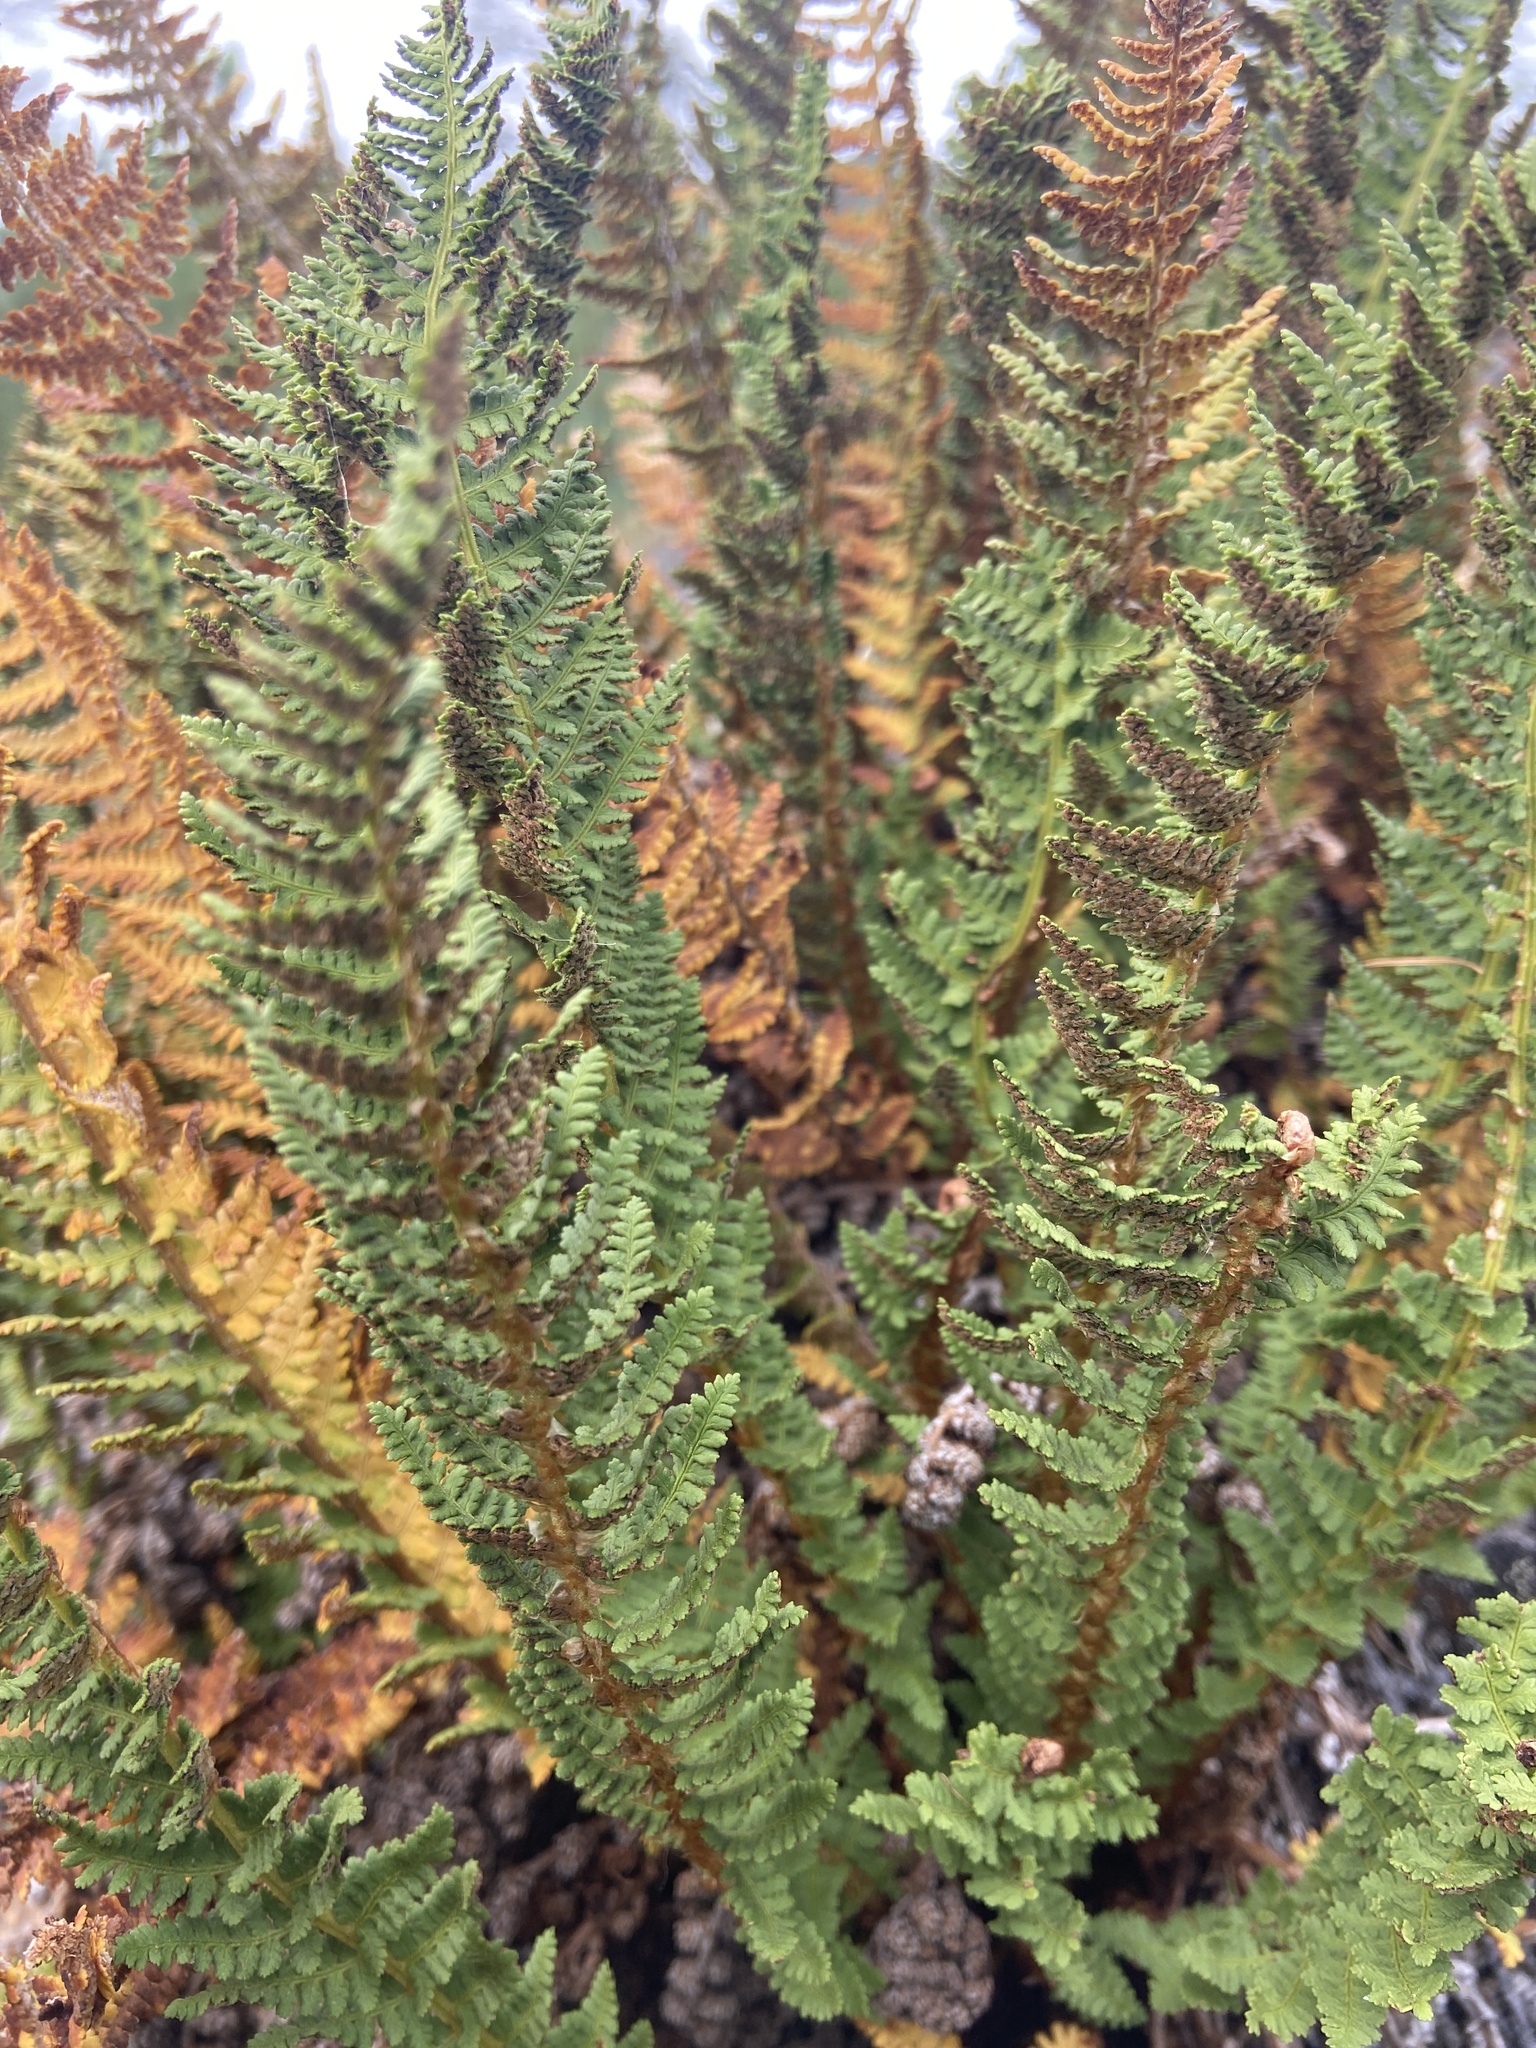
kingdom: Plantae
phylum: Tracheophyta
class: Polypodiopsida
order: Polypodiales
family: Dryopteridaceae
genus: Dryopteris
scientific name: Dryopteris fragrans
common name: Fragrant wood fern
